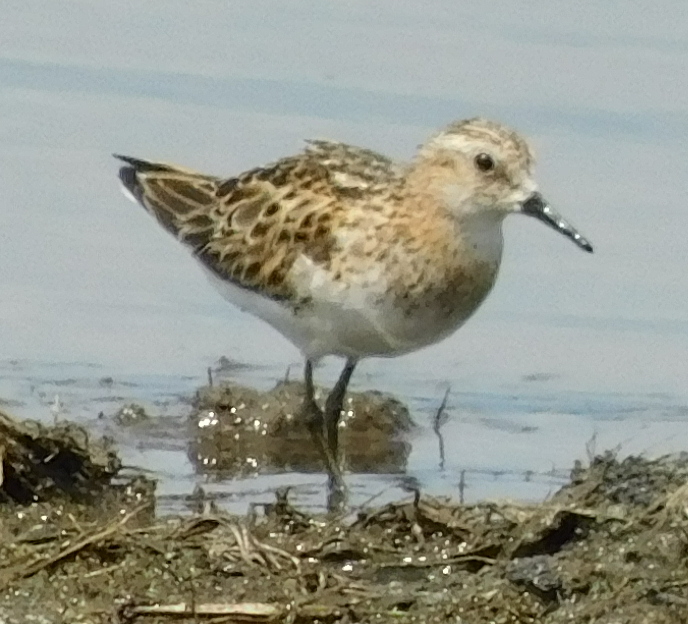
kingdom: Animalia
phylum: Chordata
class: Aves
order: Charadriiformes
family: Scolopacidae
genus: Calidris
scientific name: Calidris minuta
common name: Little stint
